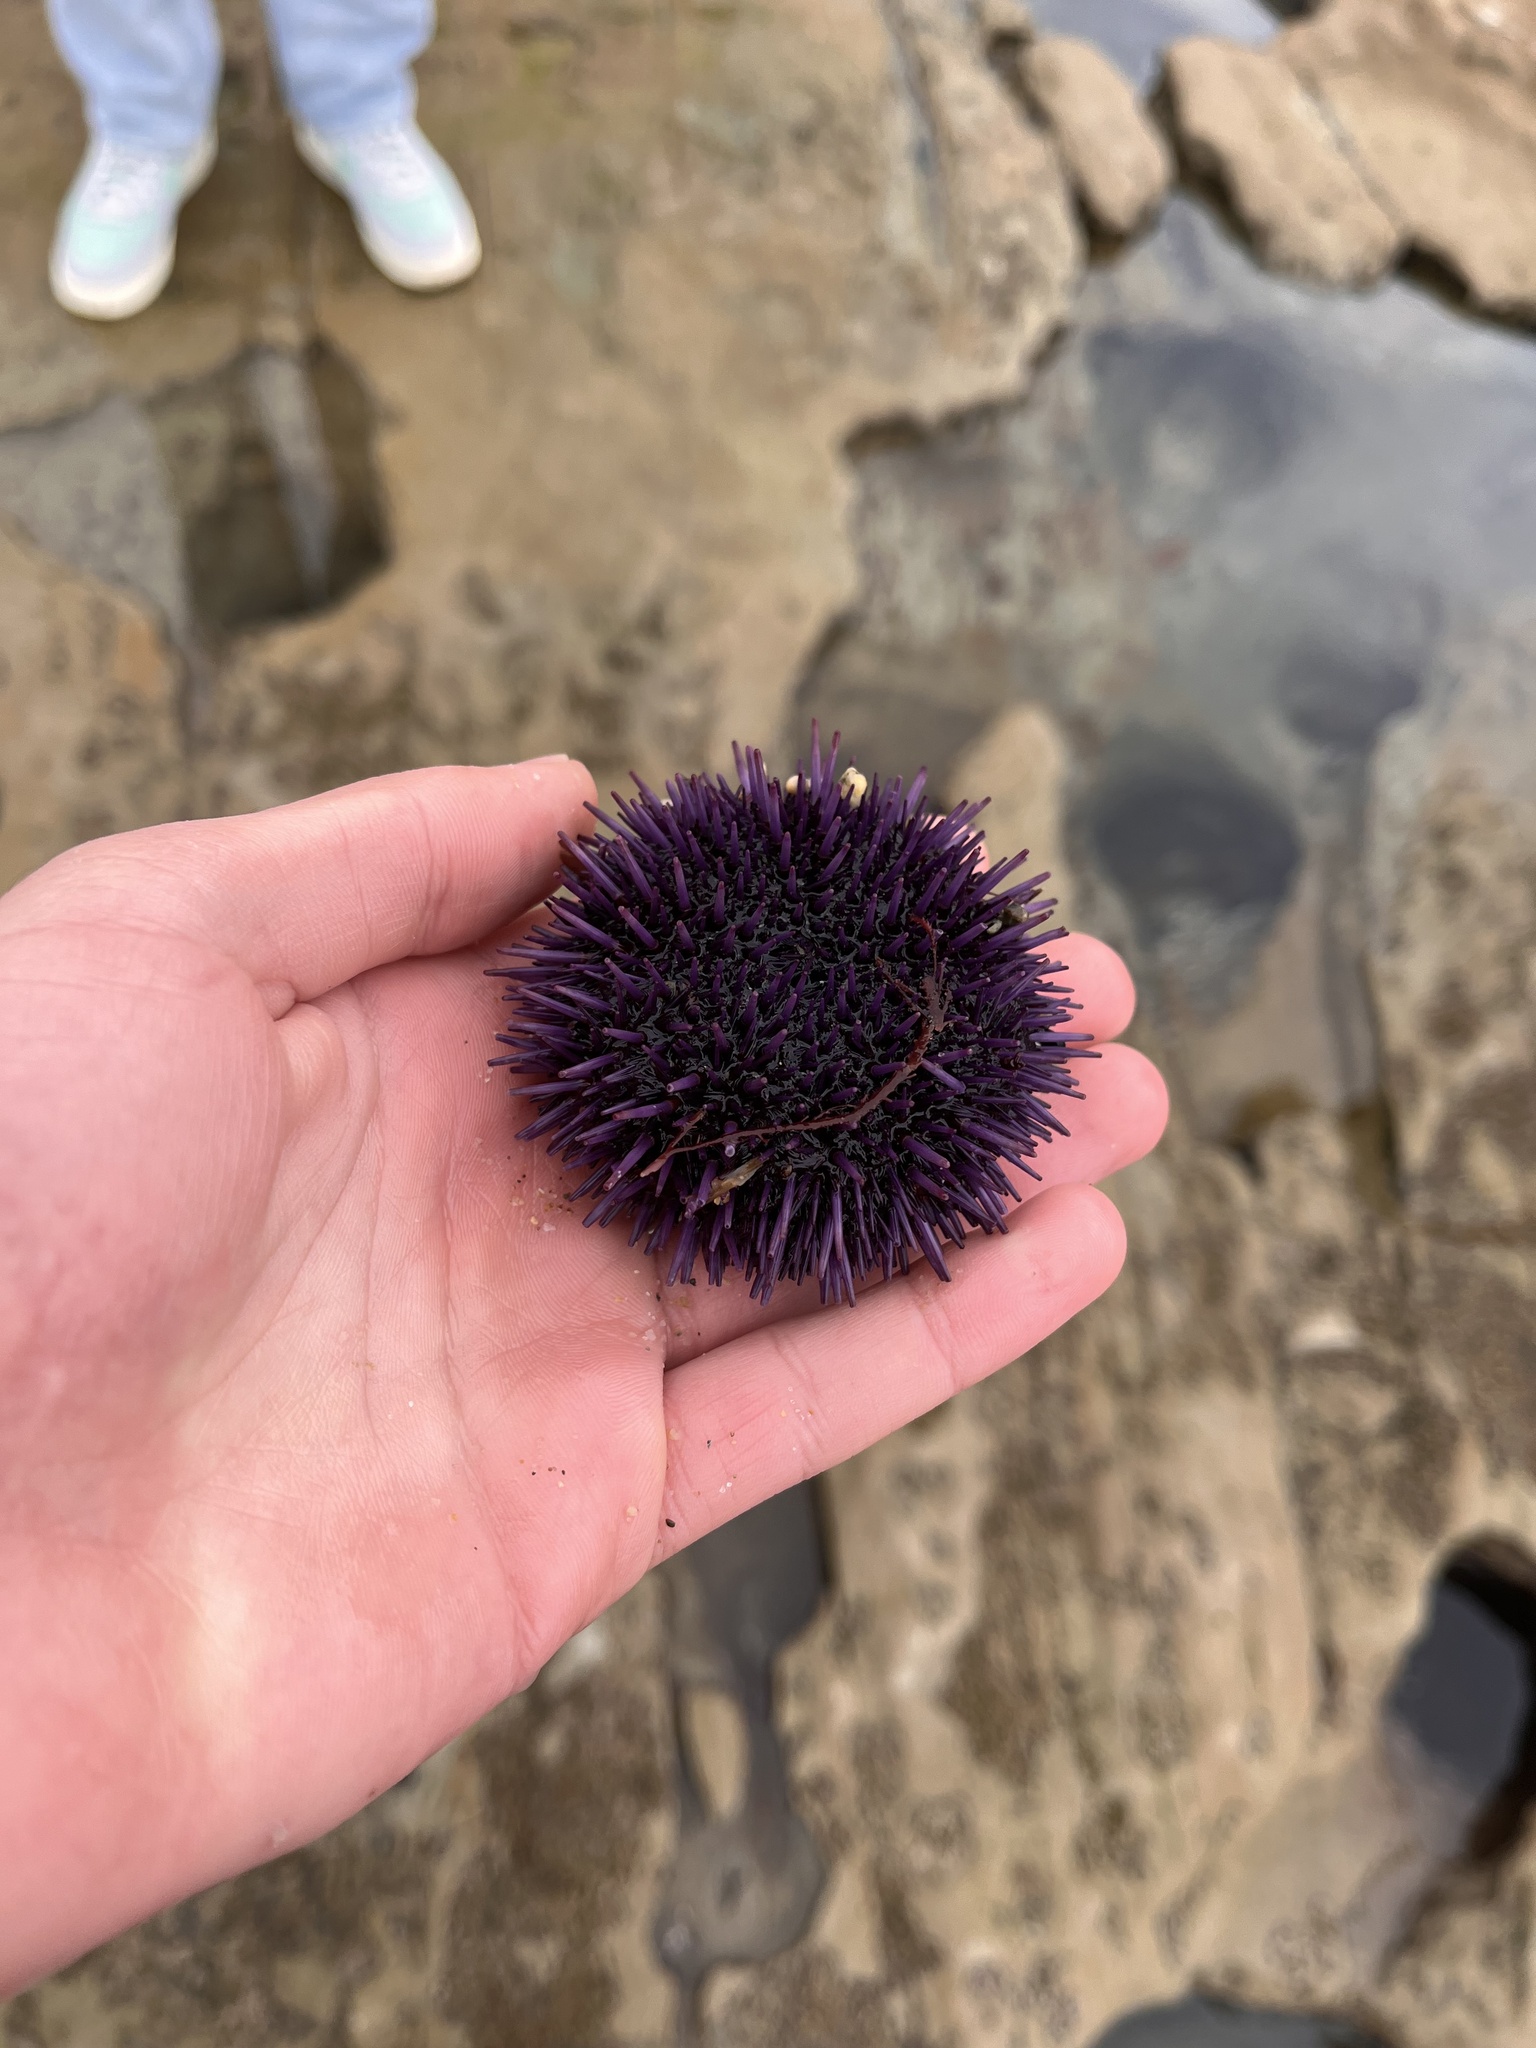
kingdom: Animalia
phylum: Echinodermata
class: Echinoidea
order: Camarodonta
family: Strongylocentrotidae
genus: Strongylocentrotus
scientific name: Strongylocentrotus purpuratus
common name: Purple sea urchin
